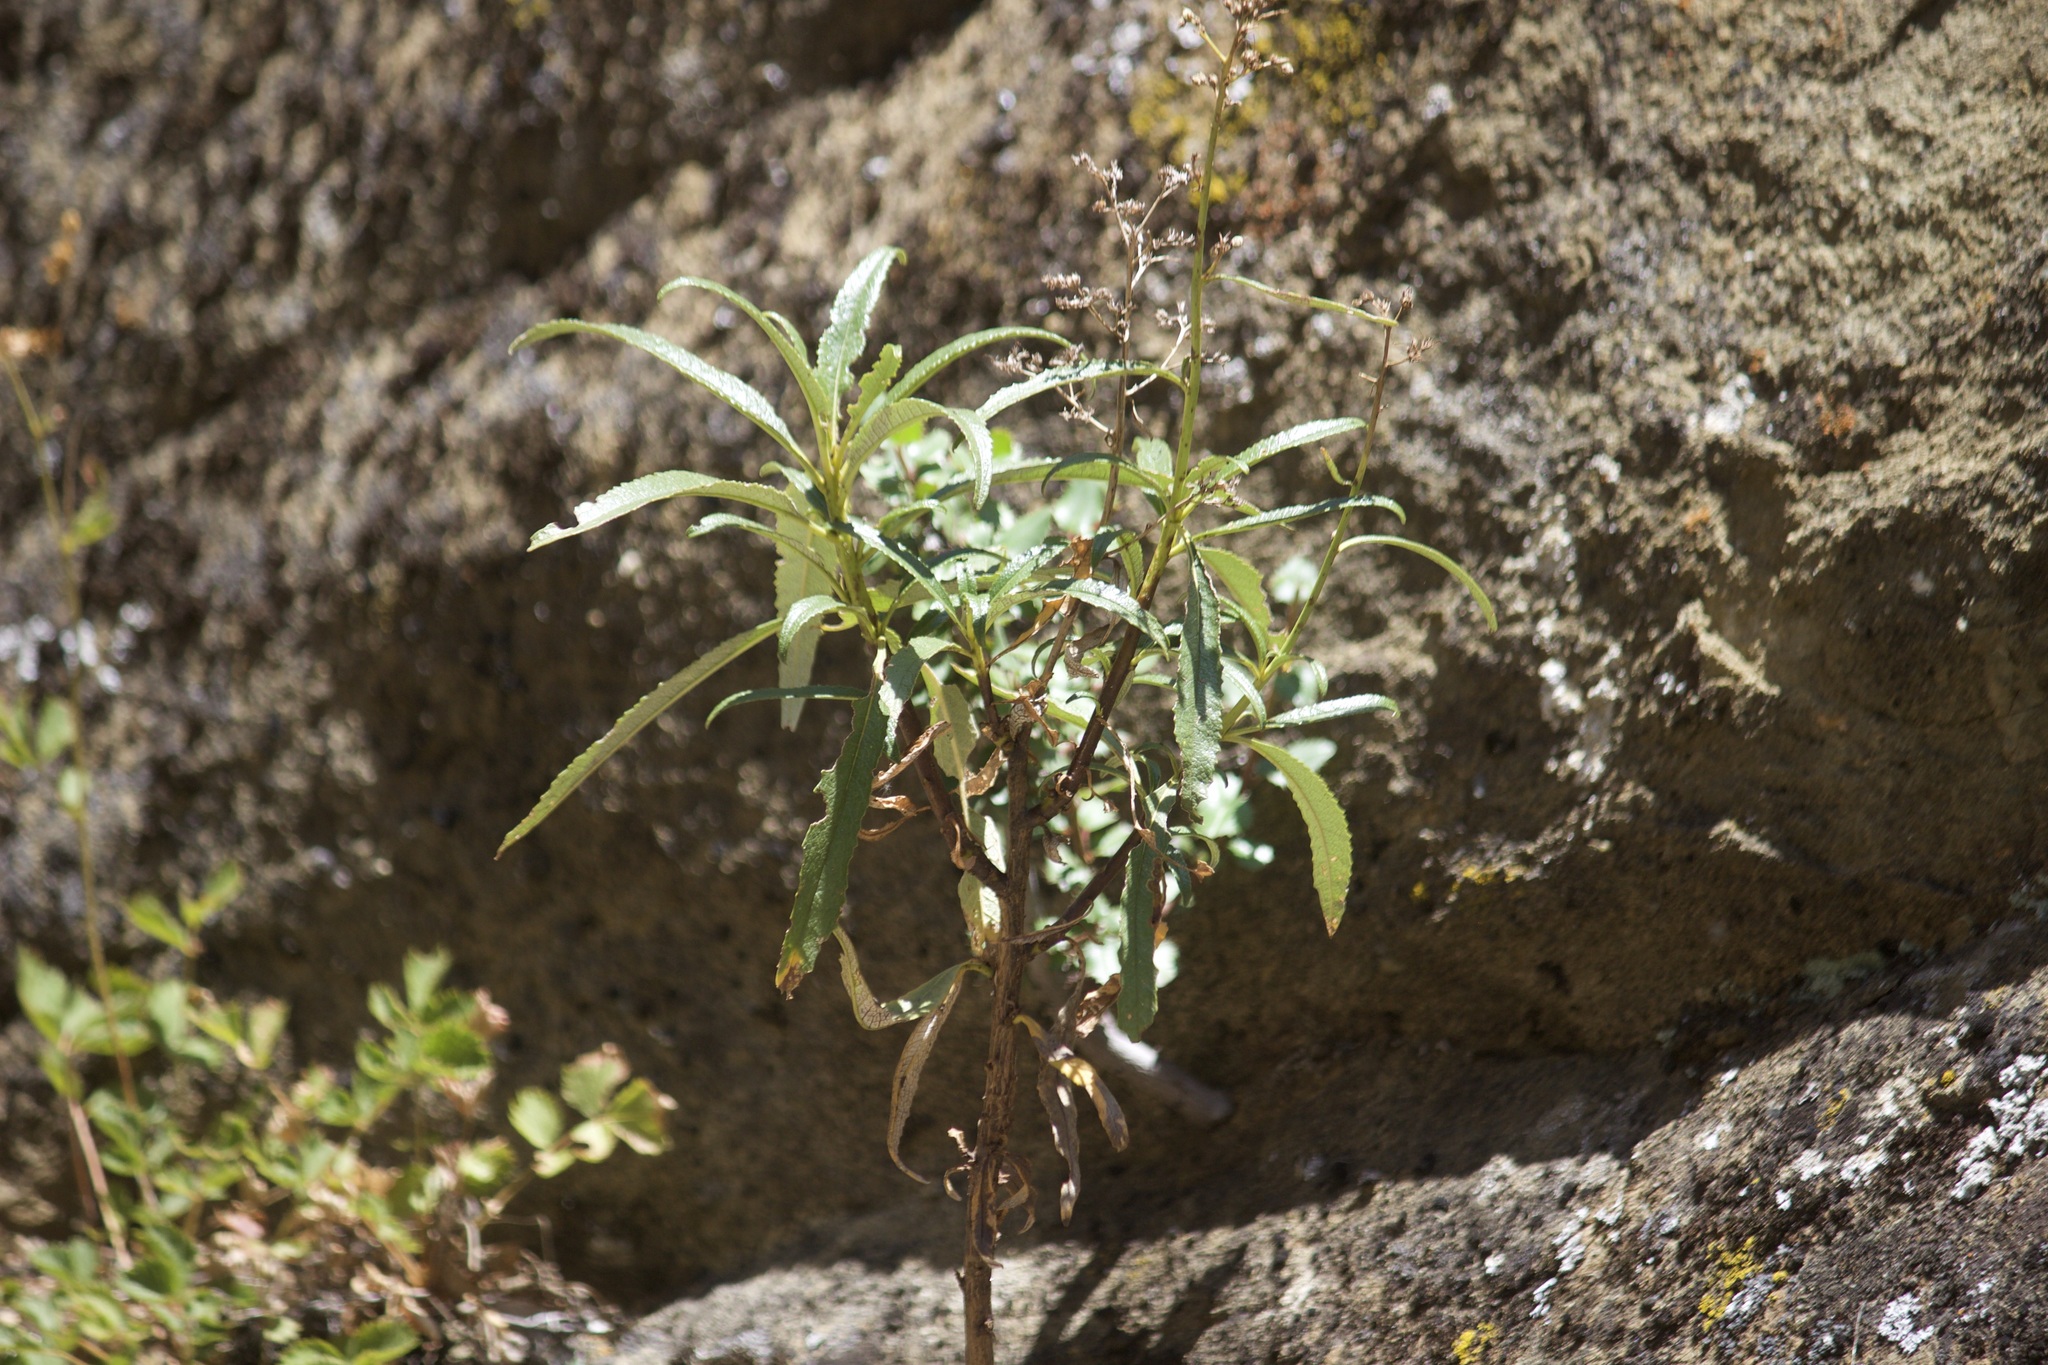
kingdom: Plantae
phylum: Tracheophyta
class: Magnoliopsida
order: Boraginales
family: Namaceae
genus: Eriodictyon
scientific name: Eriodictyon californicum
